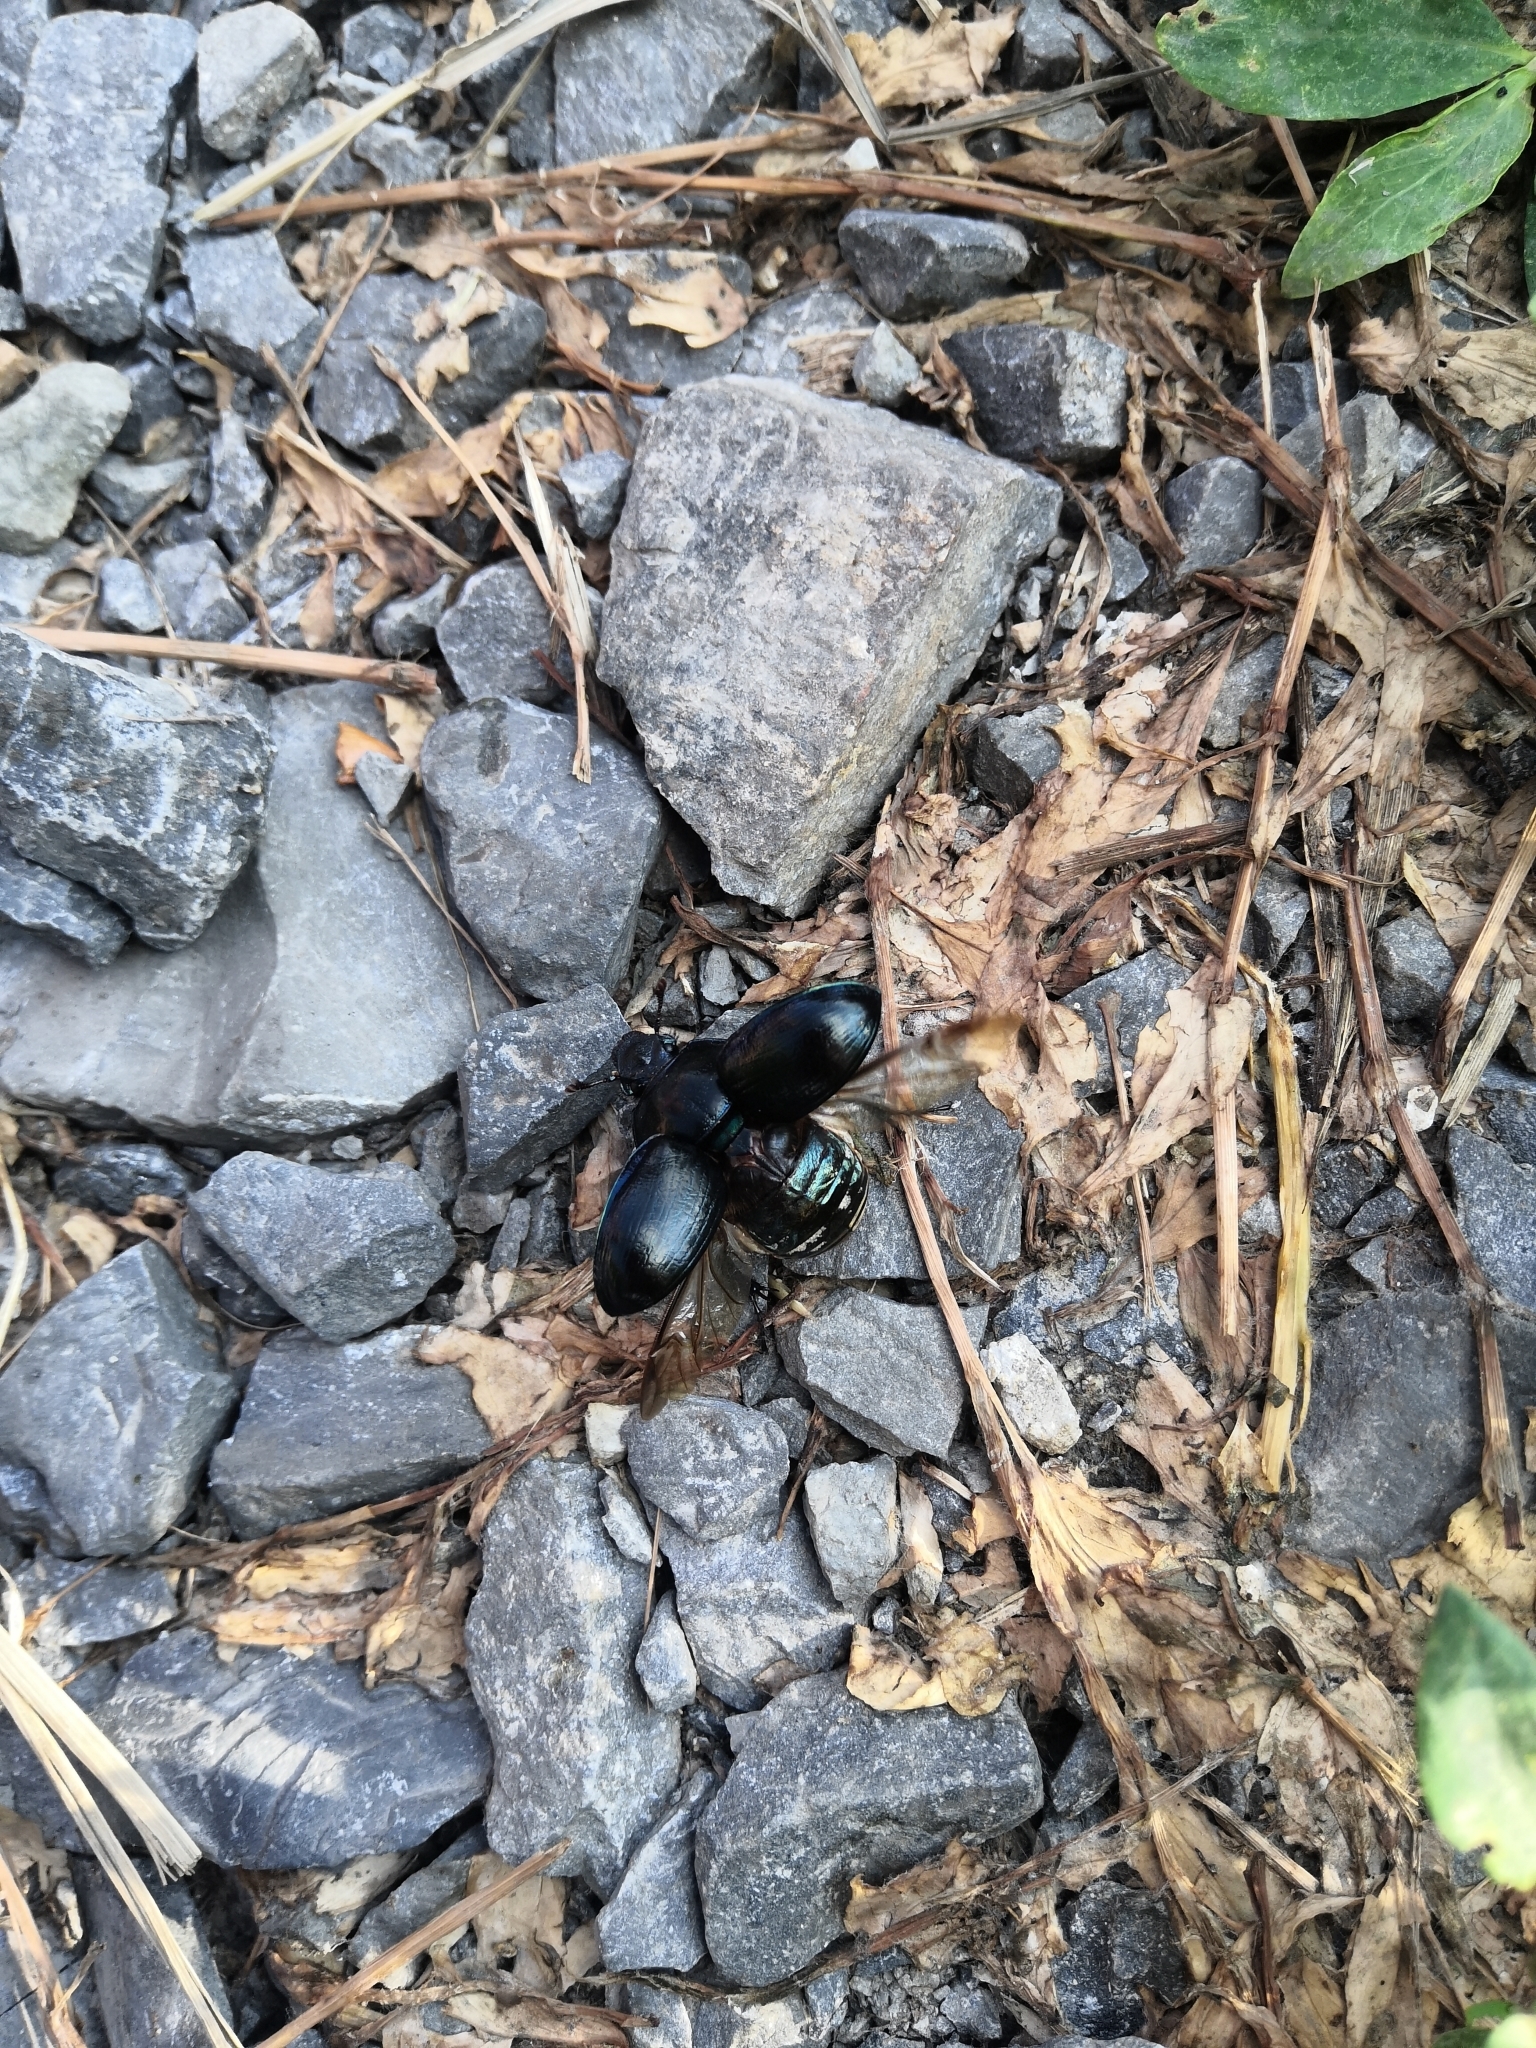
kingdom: Animalia
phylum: Arthropoda
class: Insecta
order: Coleoptera
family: Geotrupidae
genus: Anoplotrupes
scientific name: Anoplotrupes stercorosus
